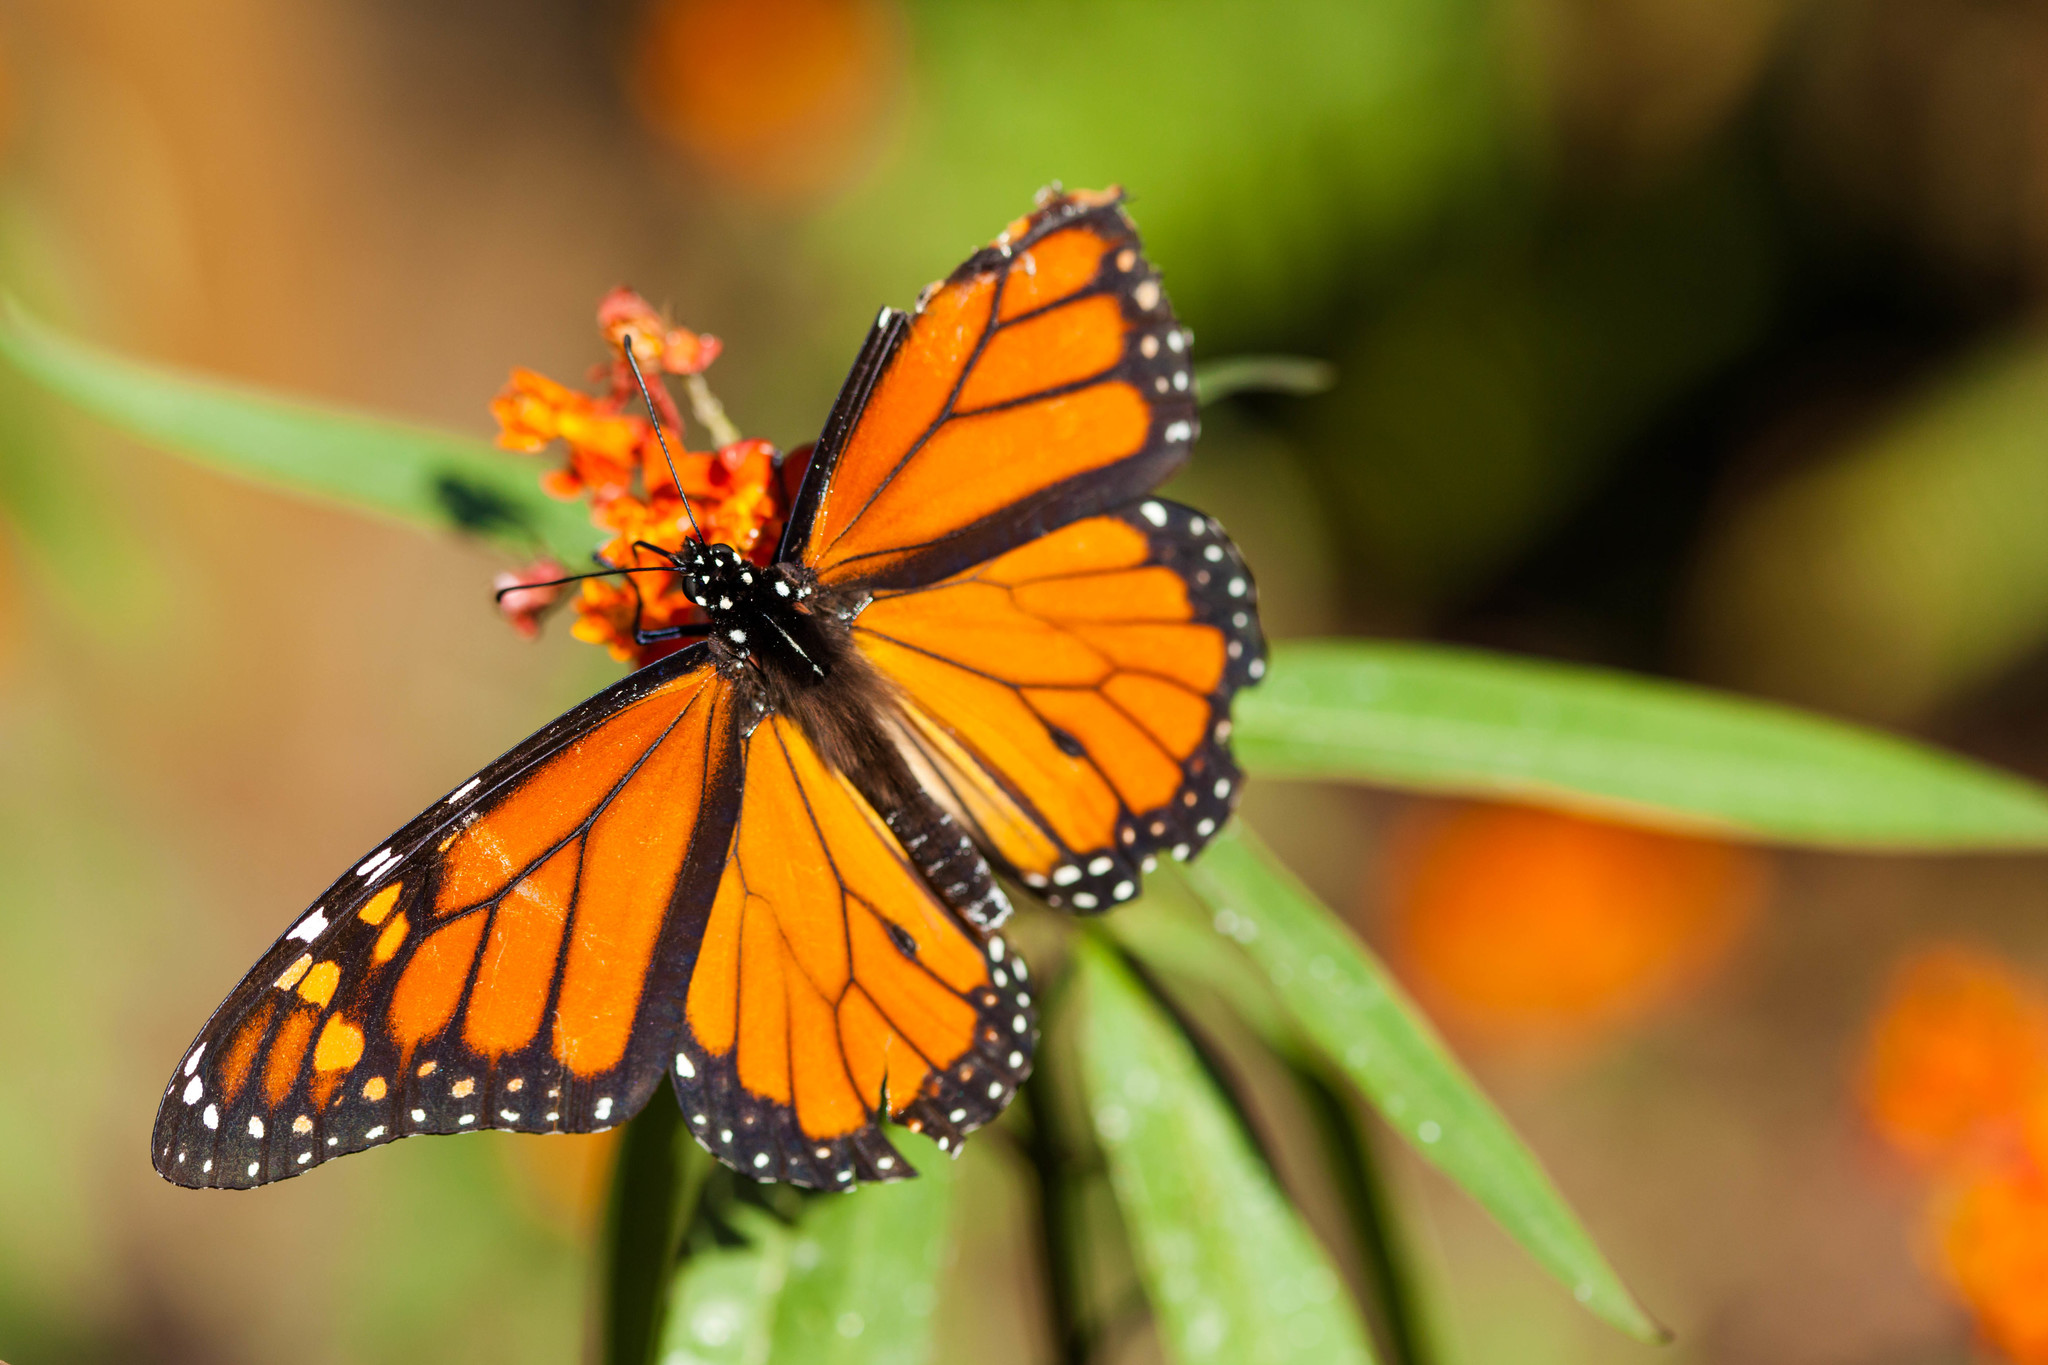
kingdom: Animalia
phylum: Arthropoda
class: Insecta
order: Lepidoptera
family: Nymphalidae
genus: Danaus
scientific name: Danaus plexippus
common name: Monarch
